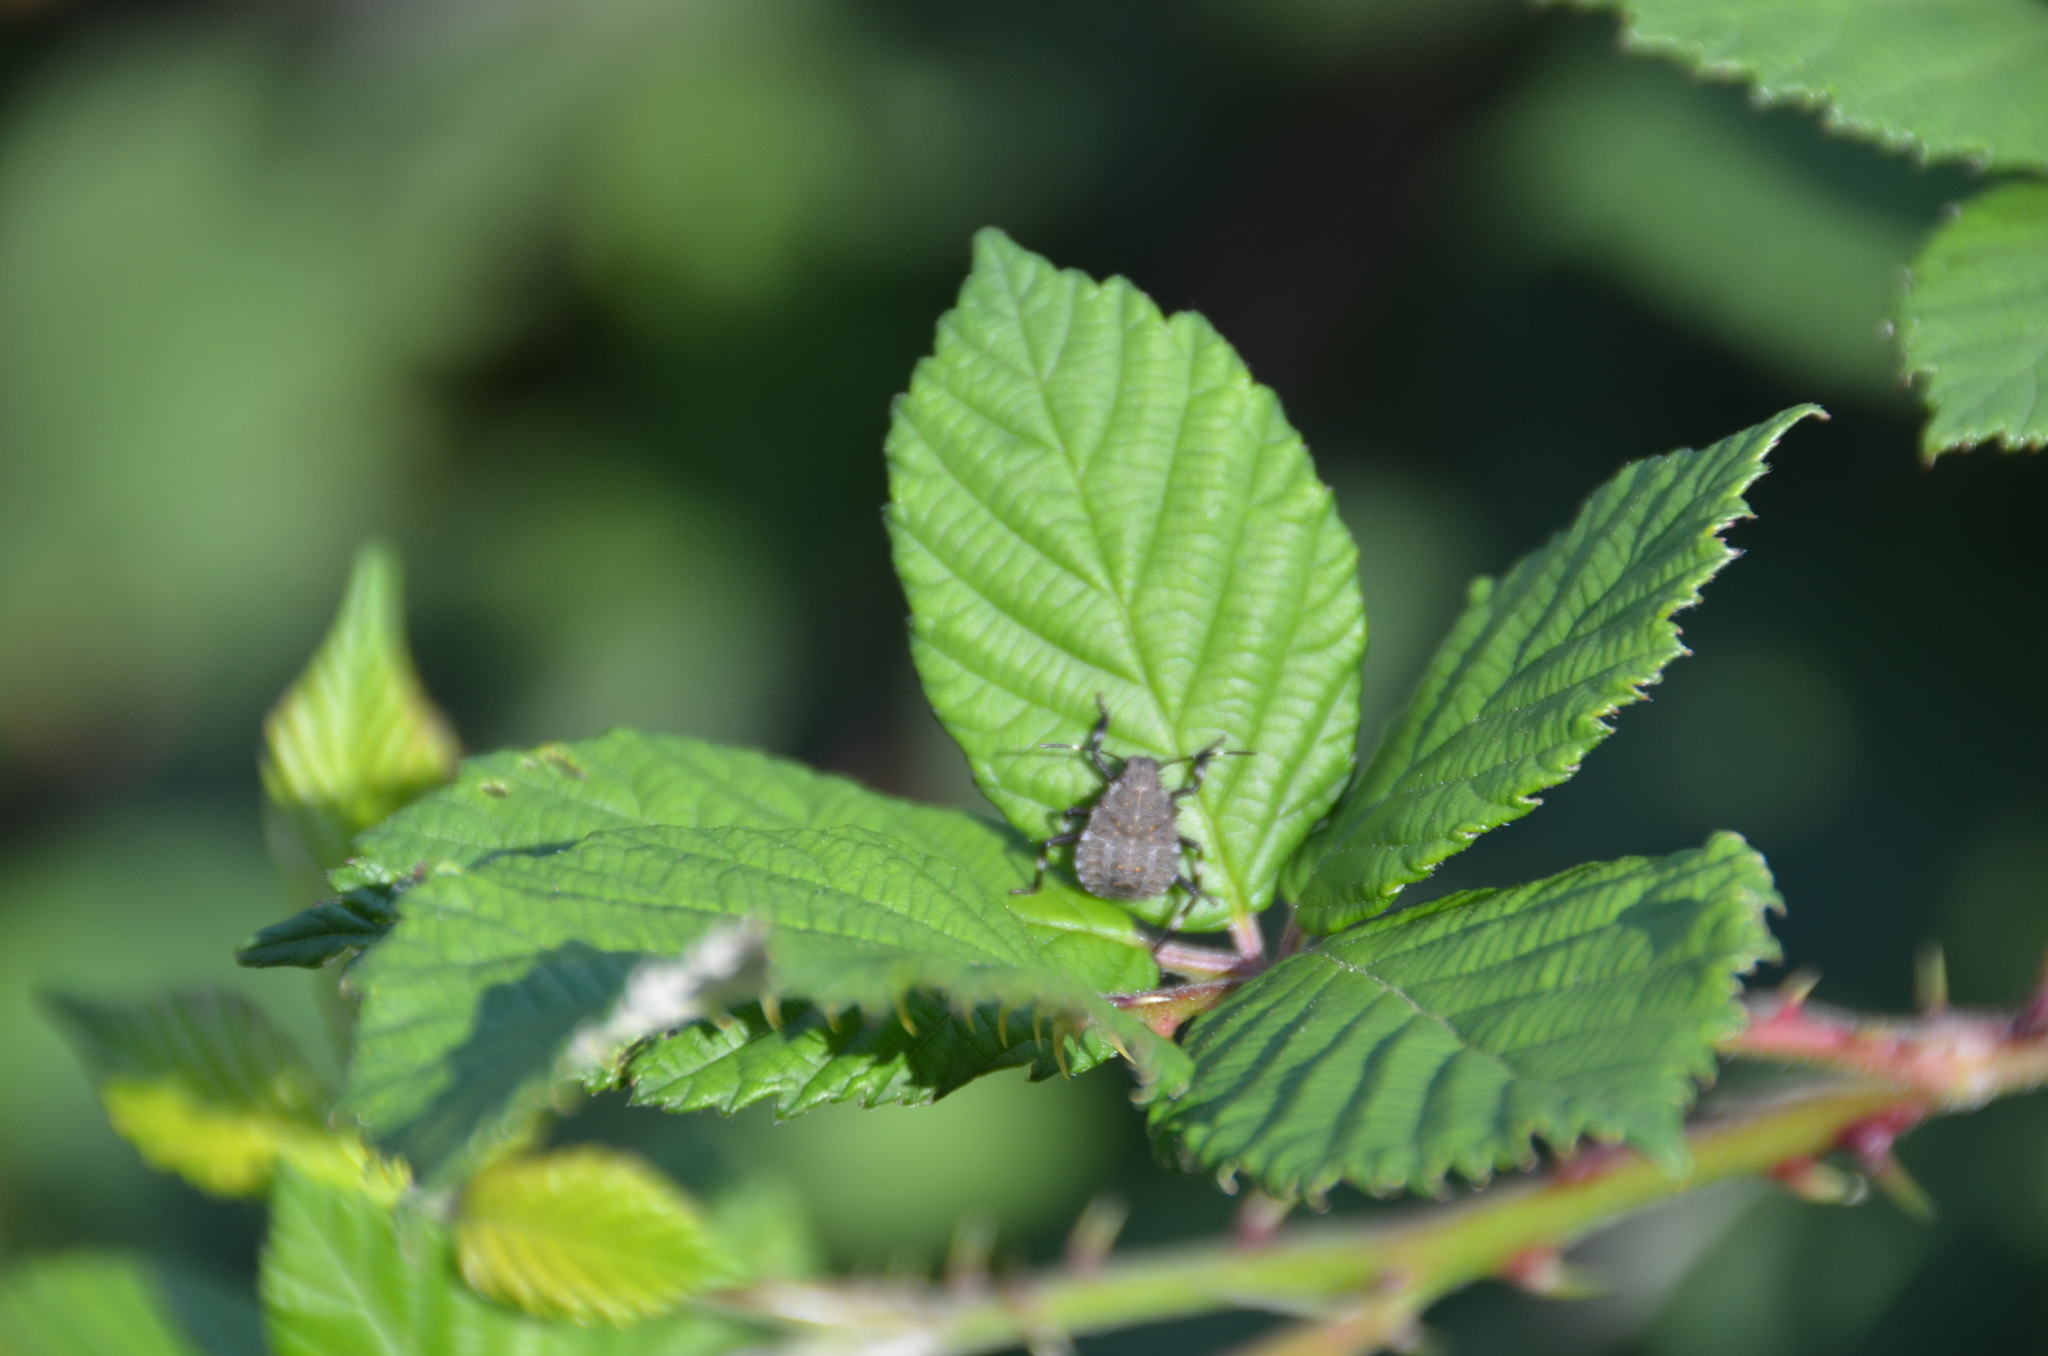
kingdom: Animalia
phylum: Arthropoda
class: Insecta
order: Hemiptera
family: Pentatomidae
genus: Halyomorpha
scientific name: Halyomorpha halys
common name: Brown marmorated stink bug
